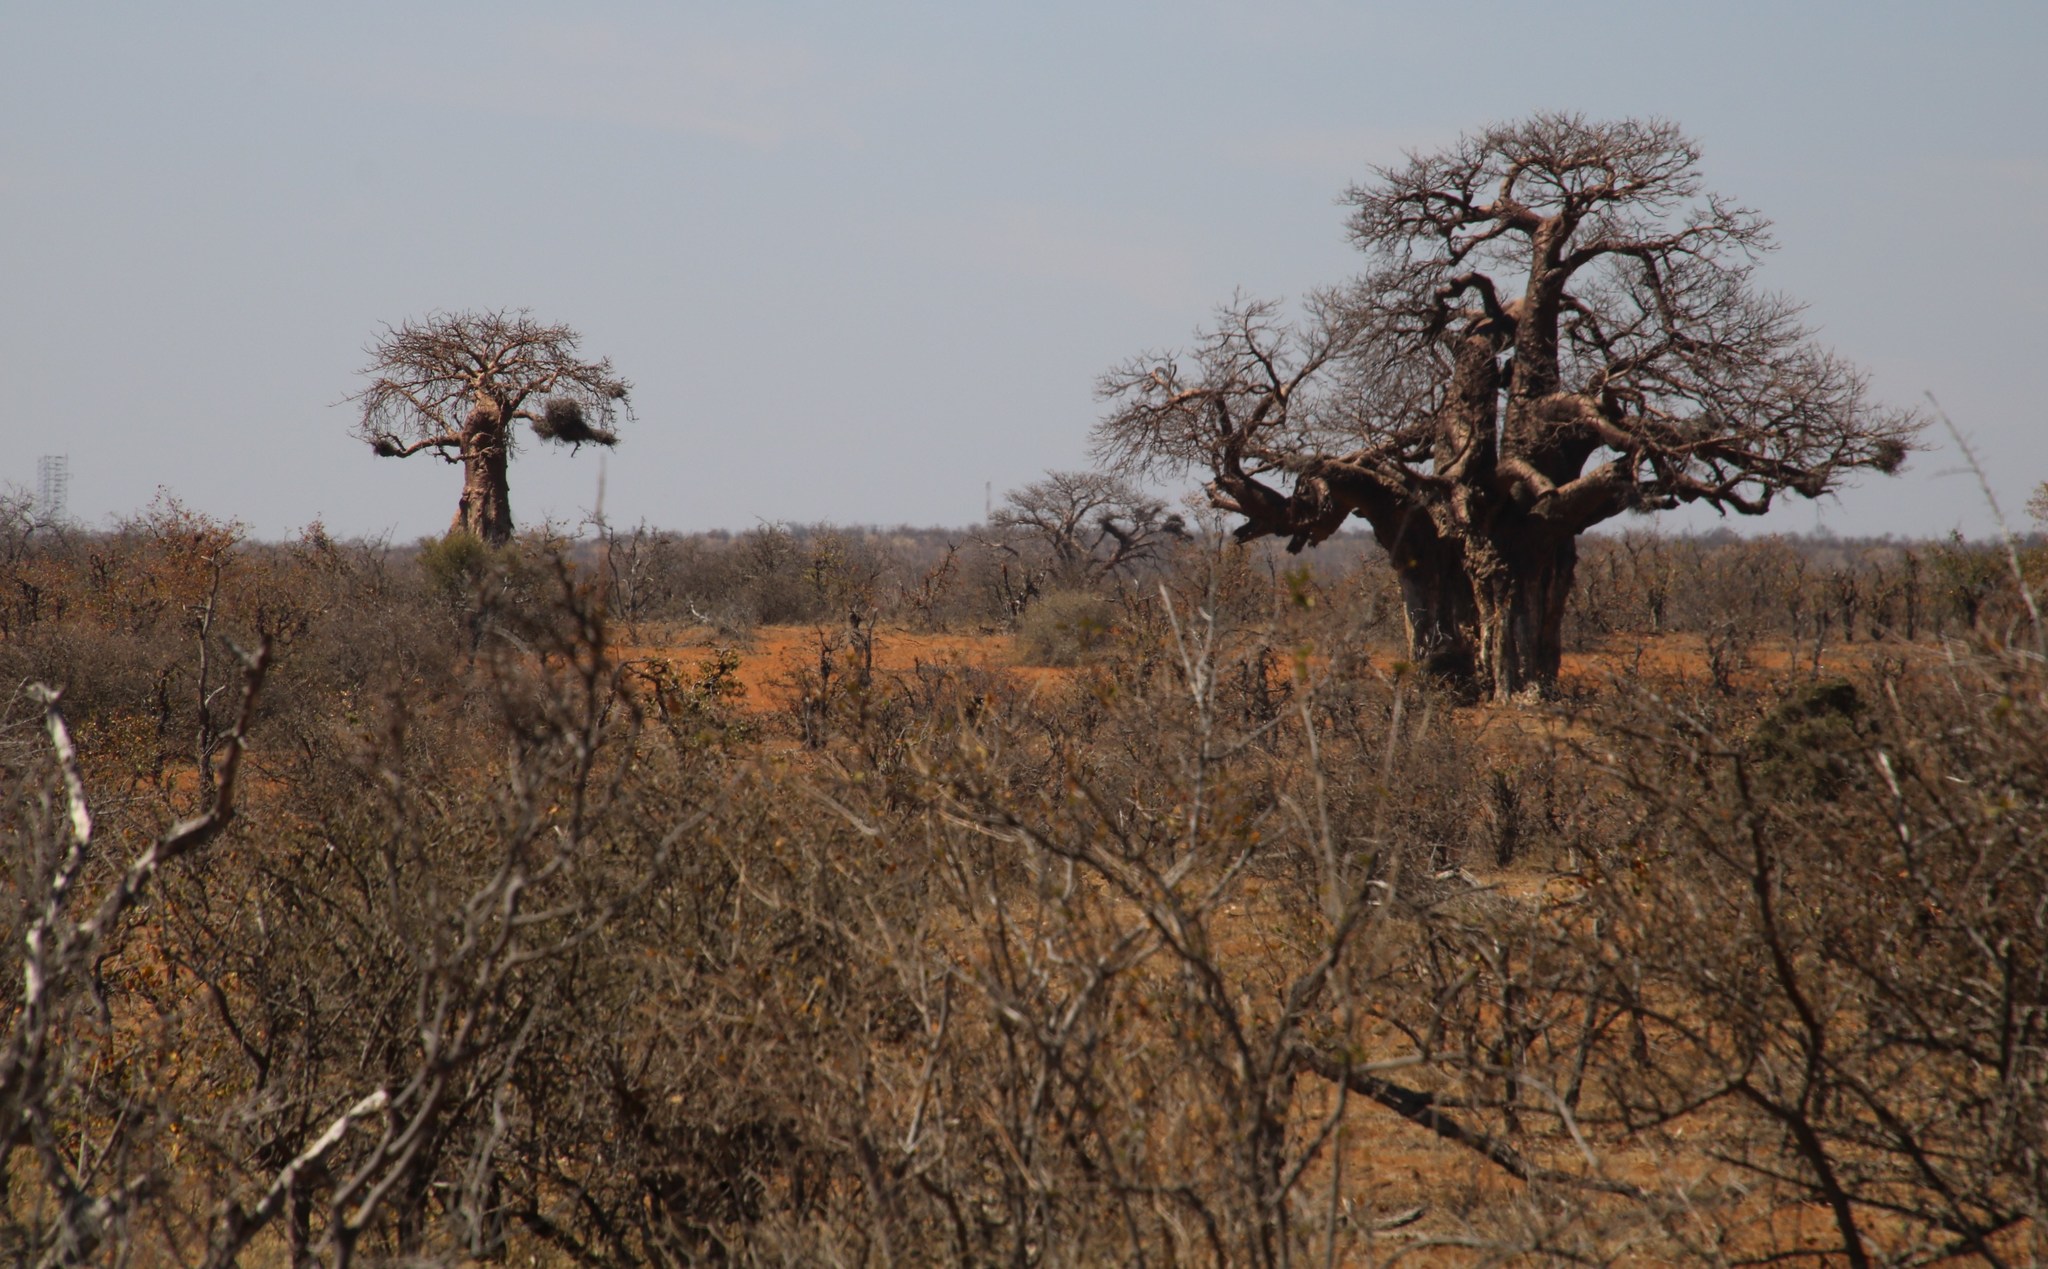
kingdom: Plantae
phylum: Tracheophyta
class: Magnoliopsida
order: Malvales
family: Malvaceae
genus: Adansonia
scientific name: Adansonia digitata
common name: Dead-rat-tree
